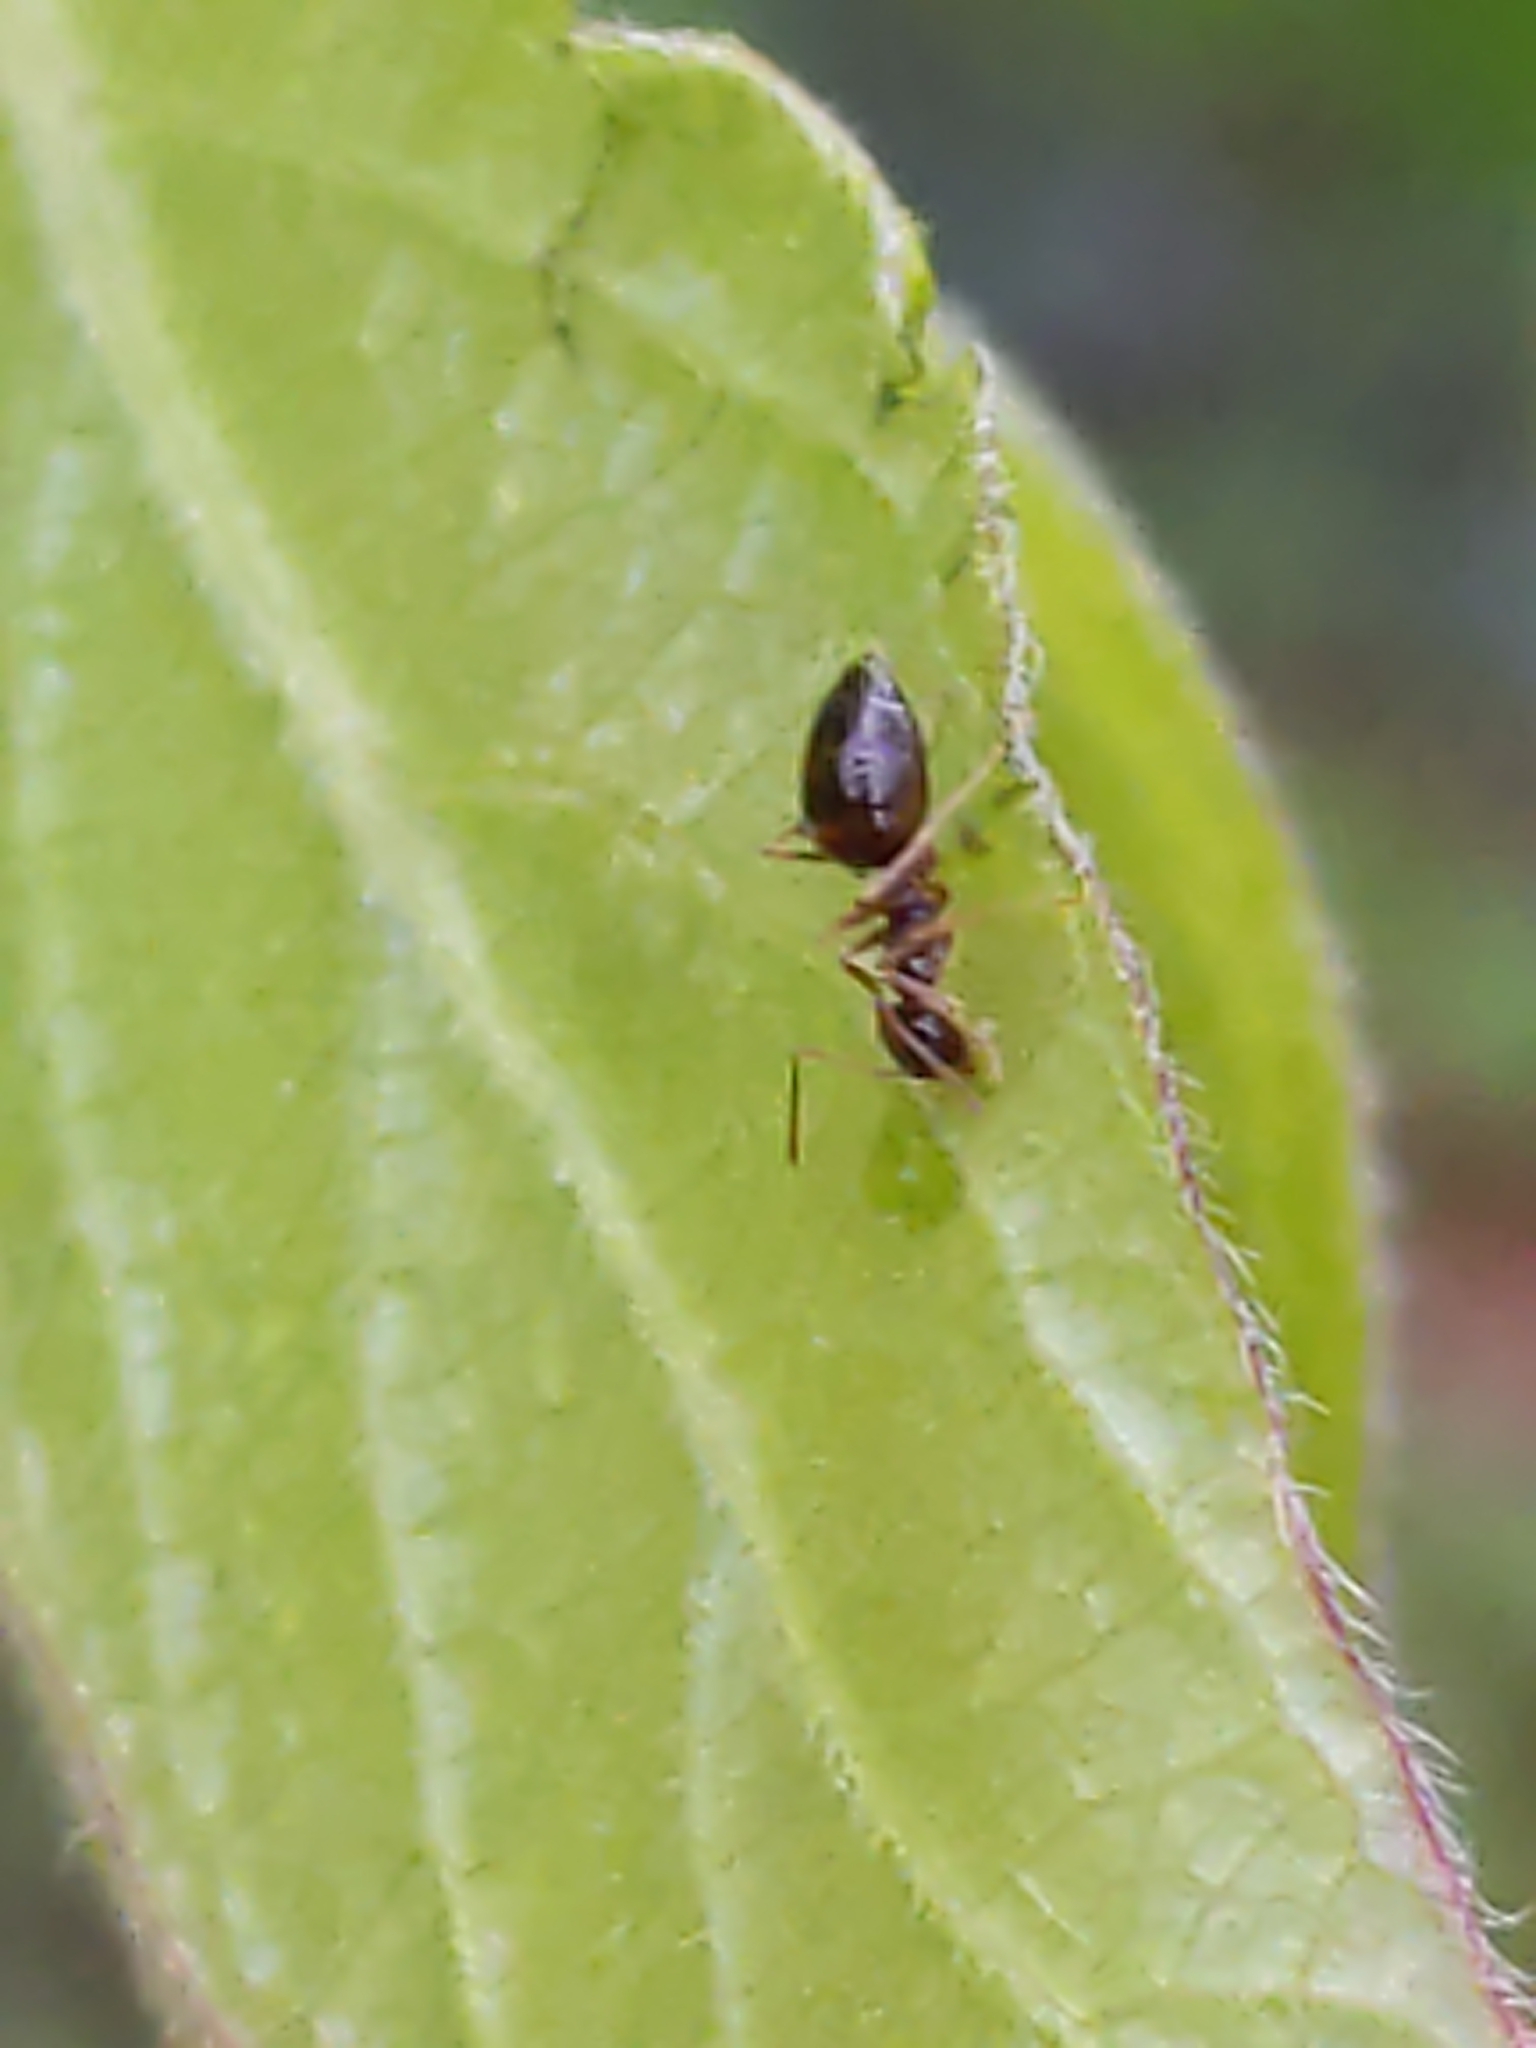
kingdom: Animalia
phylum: Arthropoda
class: Insecta
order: Hymenoptera
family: Formicidae
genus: Prenolepis
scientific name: Prenolepis imparis
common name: Small honey ant
